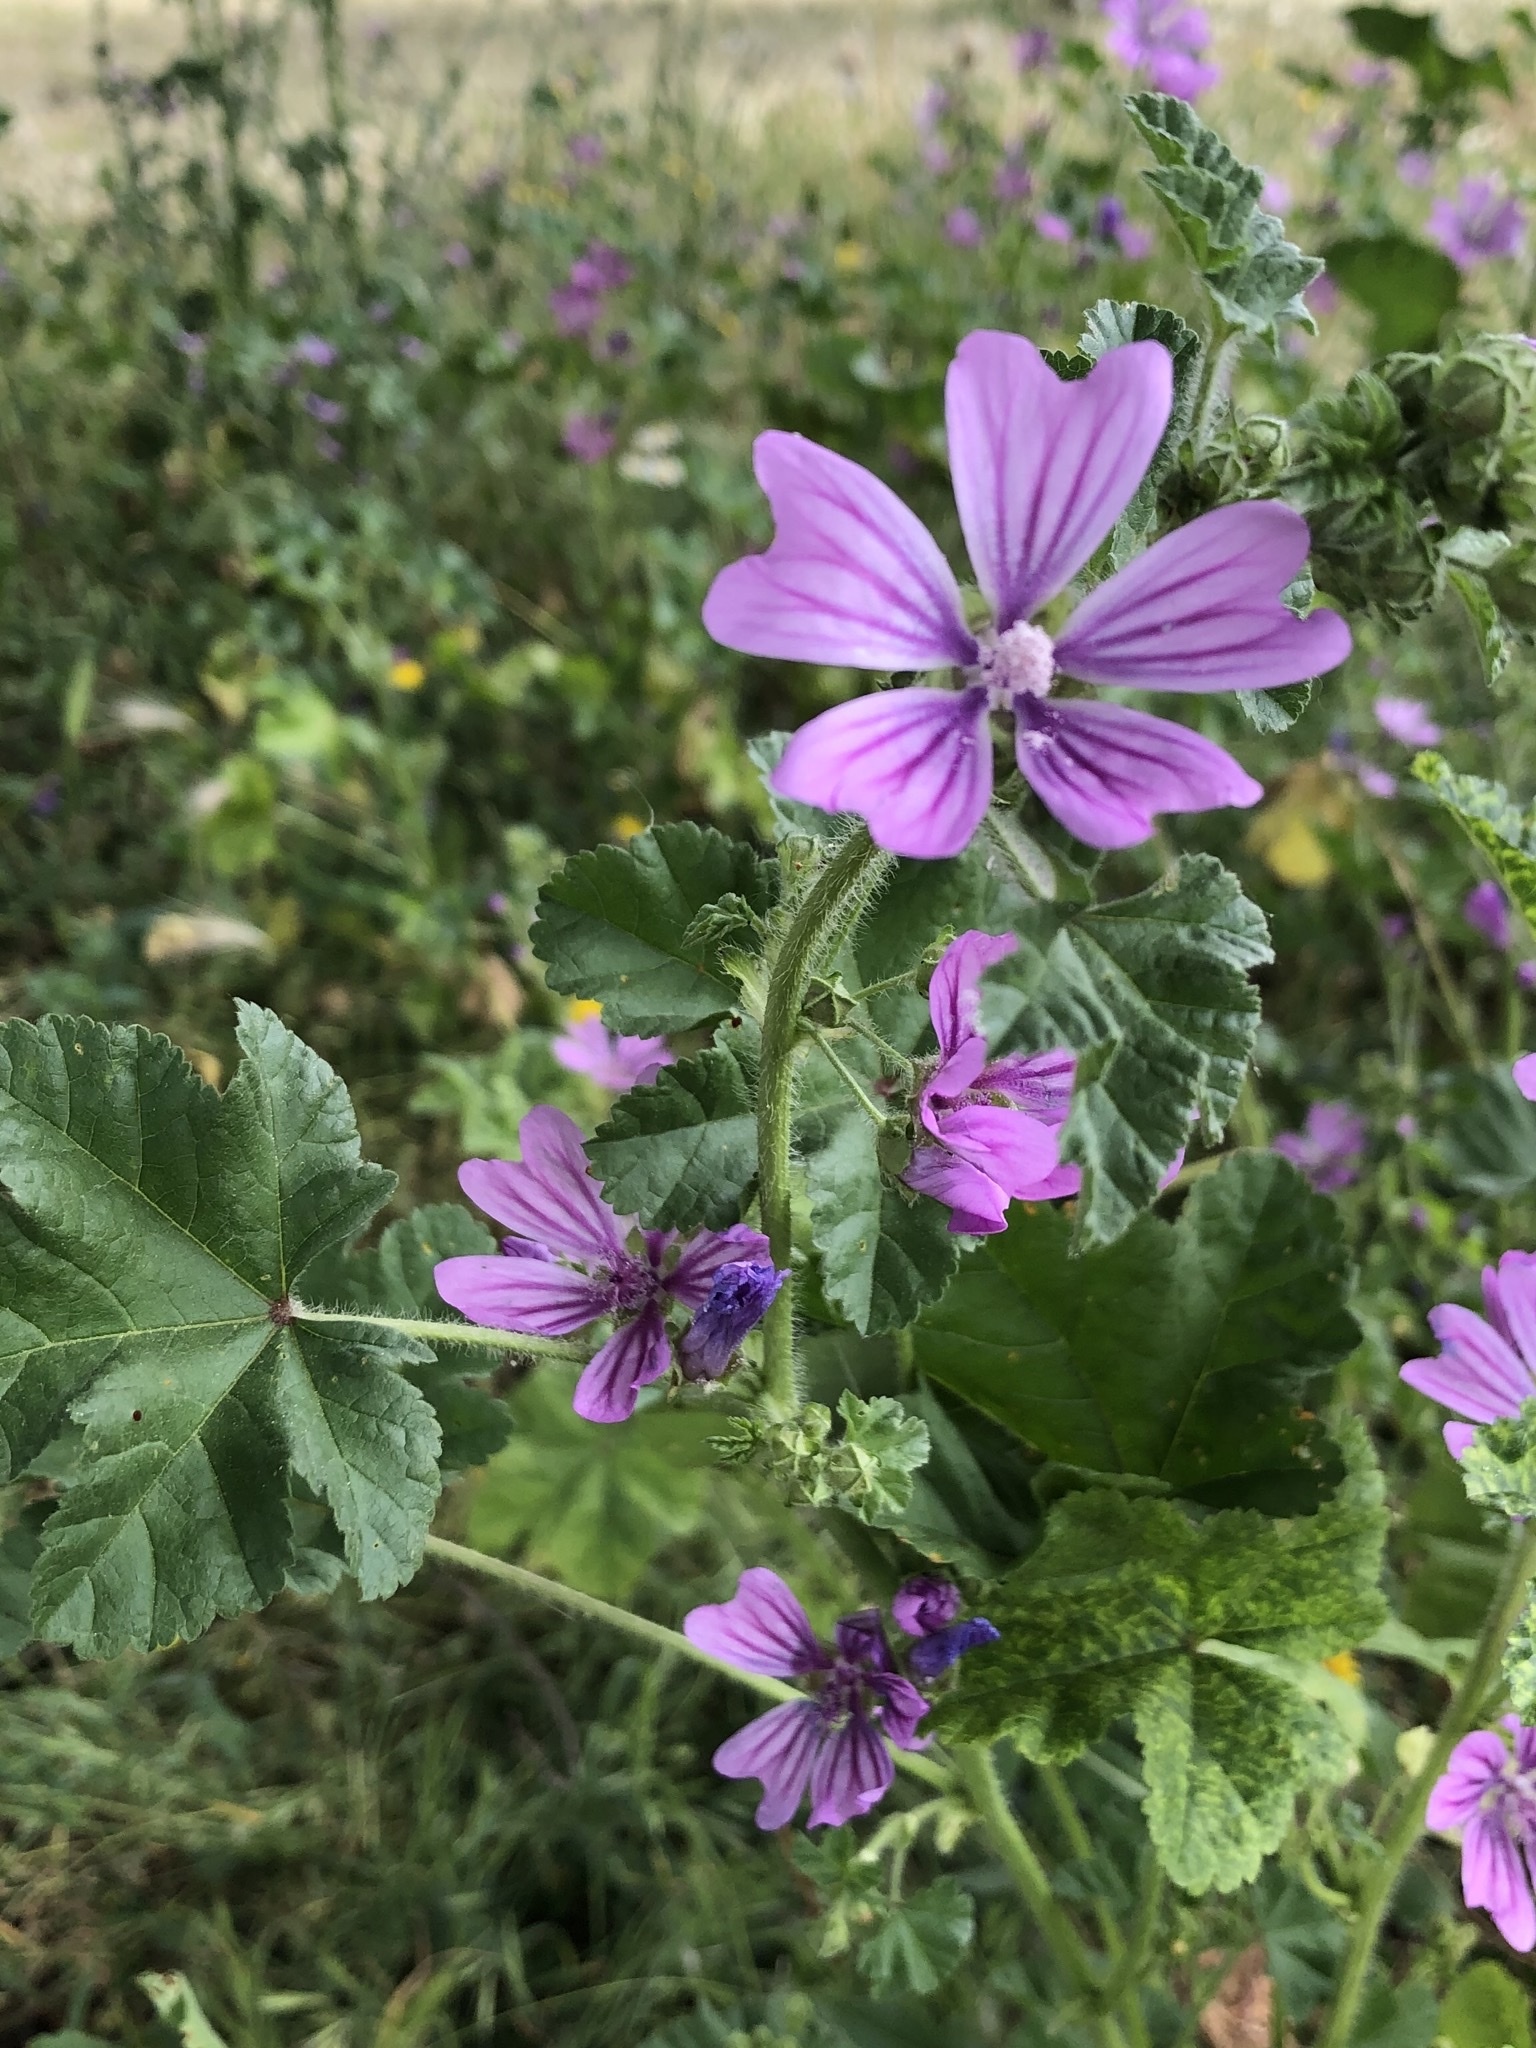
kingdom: Plantae
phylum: Tracheophyta
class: Magnoliopsida
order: Malvales
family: Malvaceae
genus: Malva
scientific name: Malva sylvestris
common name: Common mallow
